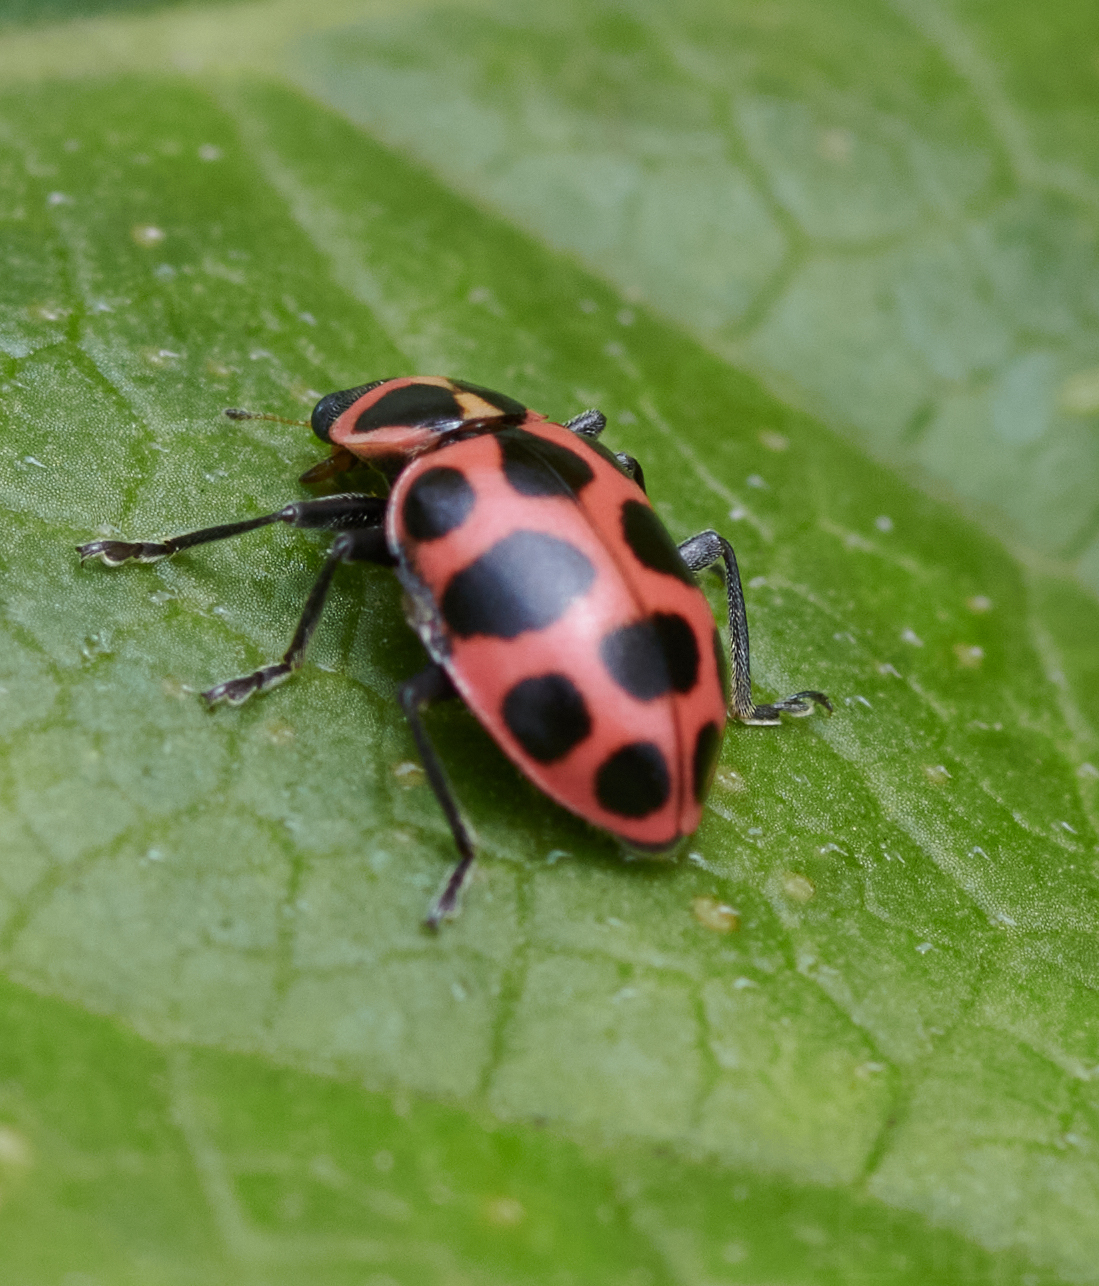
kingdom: Animalia
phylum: Arthropoda
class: Insecta
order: Coleoptera
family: Coccinellidae
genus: Coleomegilla
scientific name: Coleomegilla maculata
